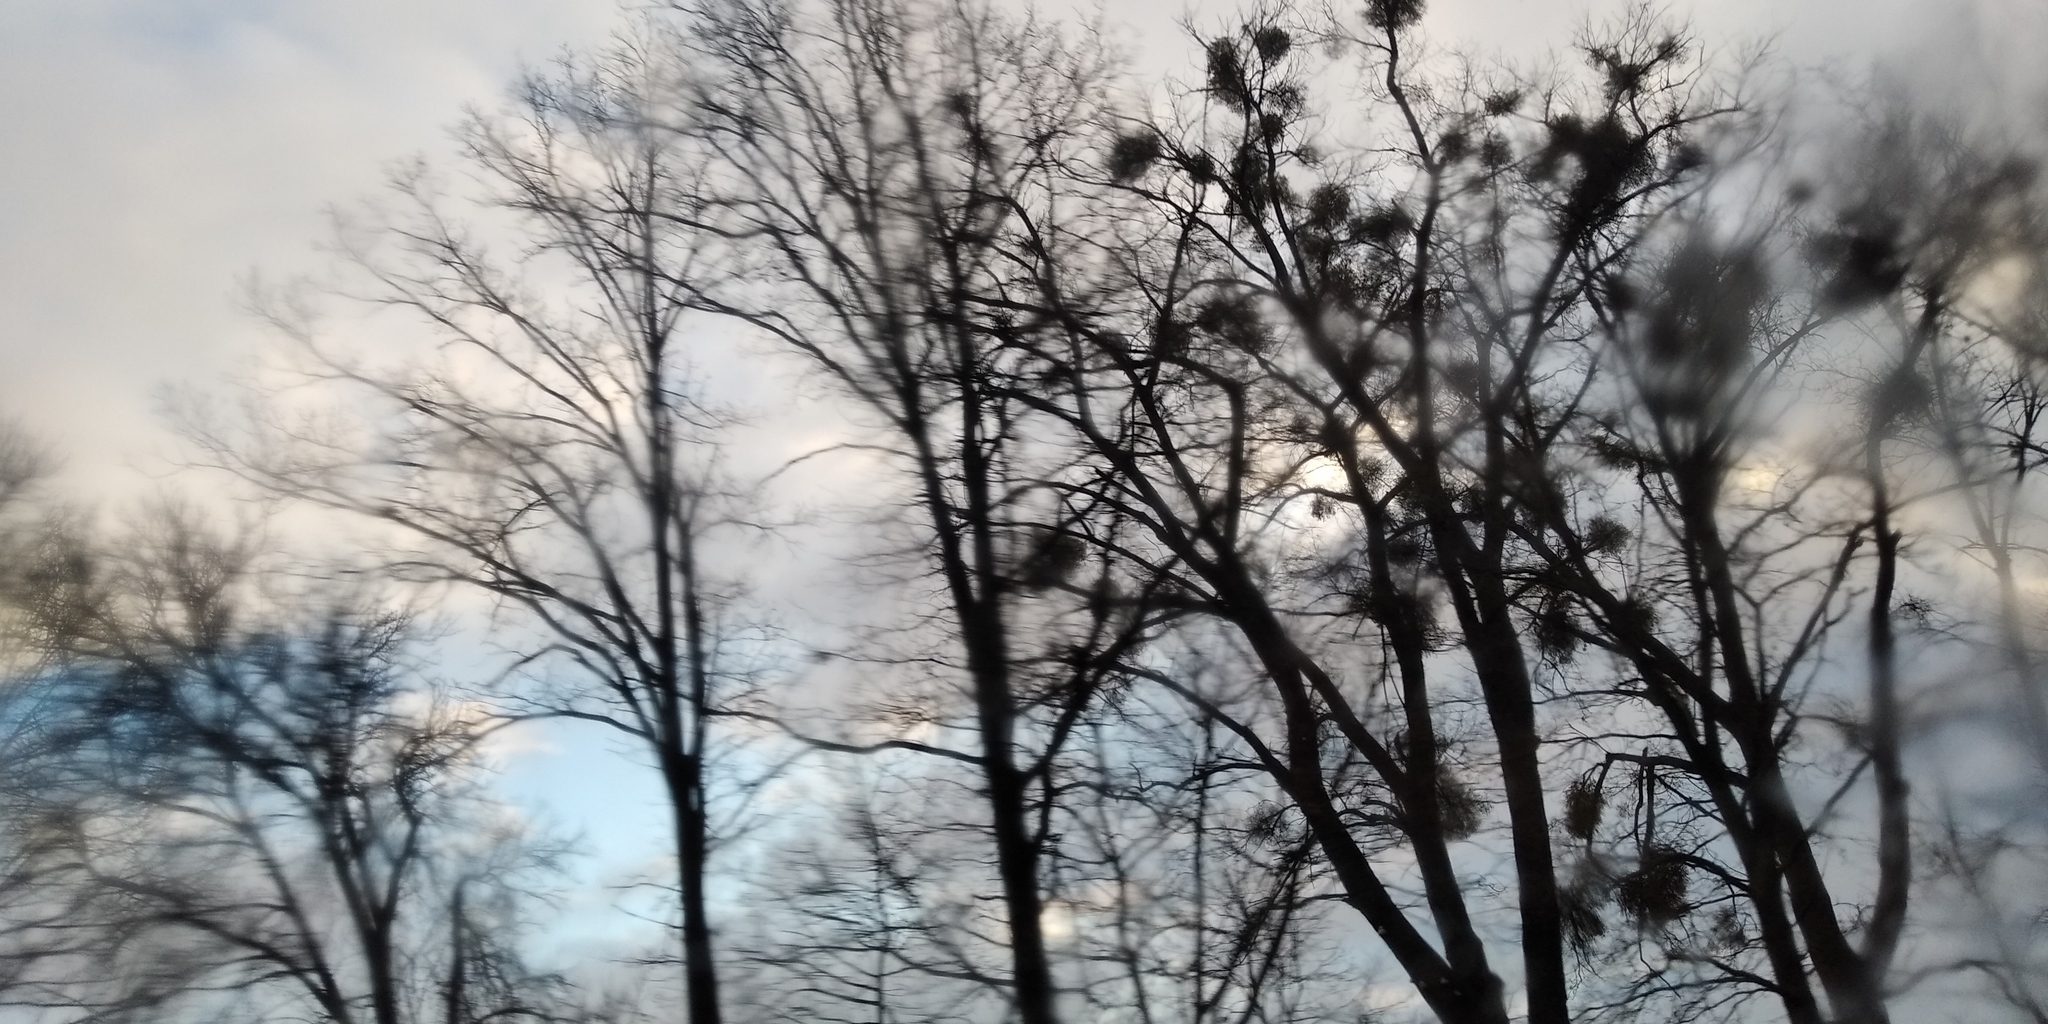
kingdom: Plantae
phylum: Tracheophyta
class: Magnoliopsida
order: Santalales
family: Viscaceae
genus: Viscum
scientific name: Viscum album
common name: Mistletoe
